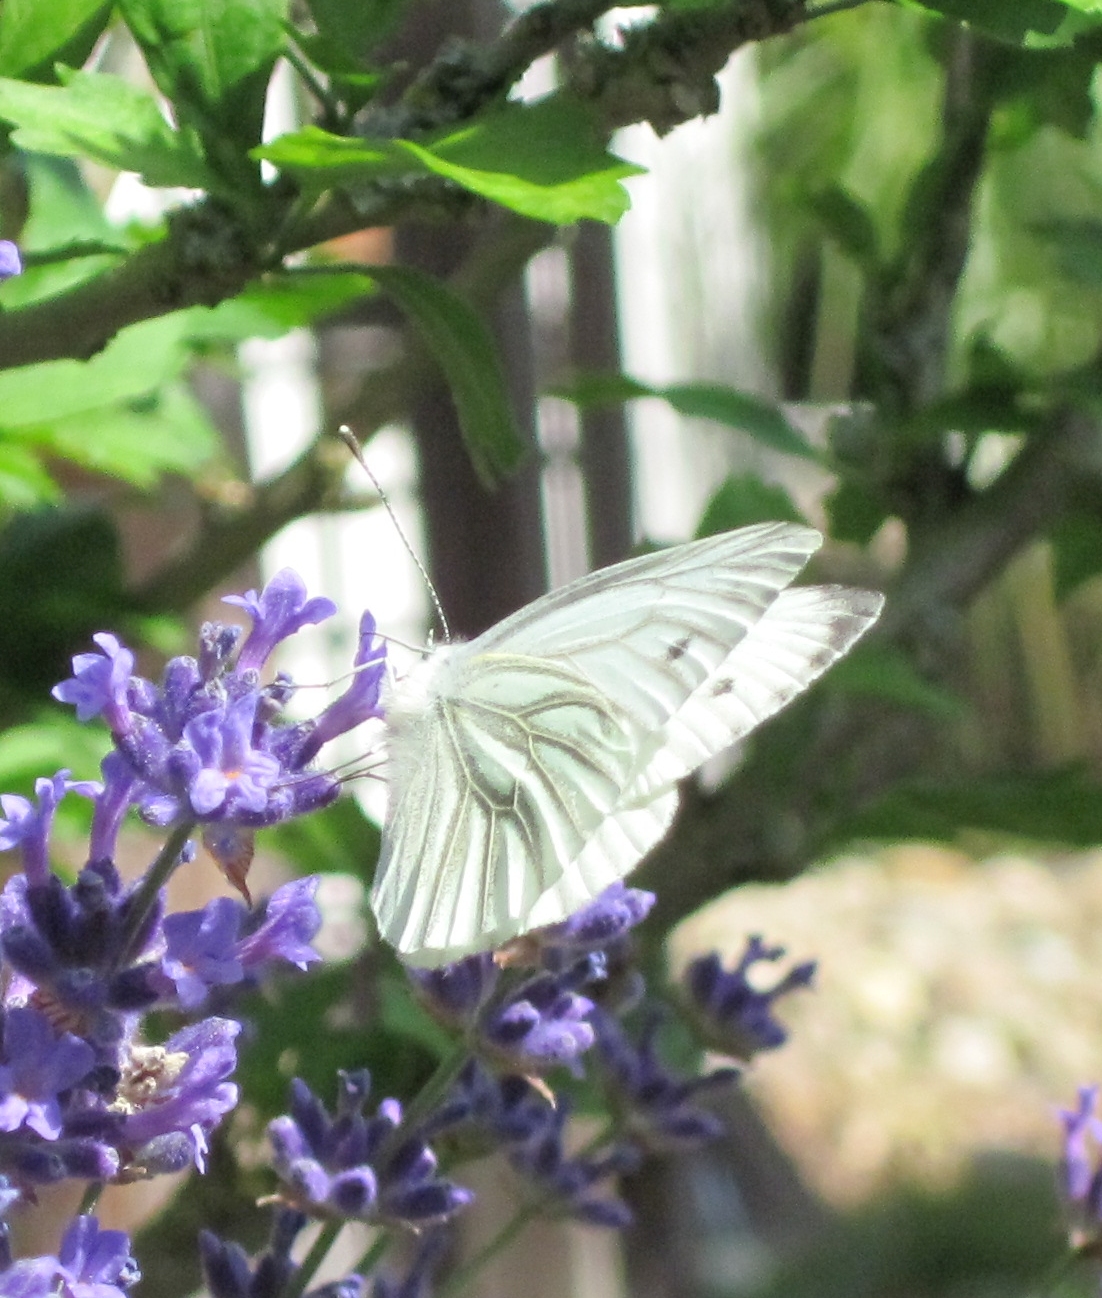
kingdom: Animalia
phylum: Arthropoda
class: Insecta
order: Lepidoptera
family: Pieridae
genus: Pieris
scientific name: Pieris napi
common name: Green-veined white
